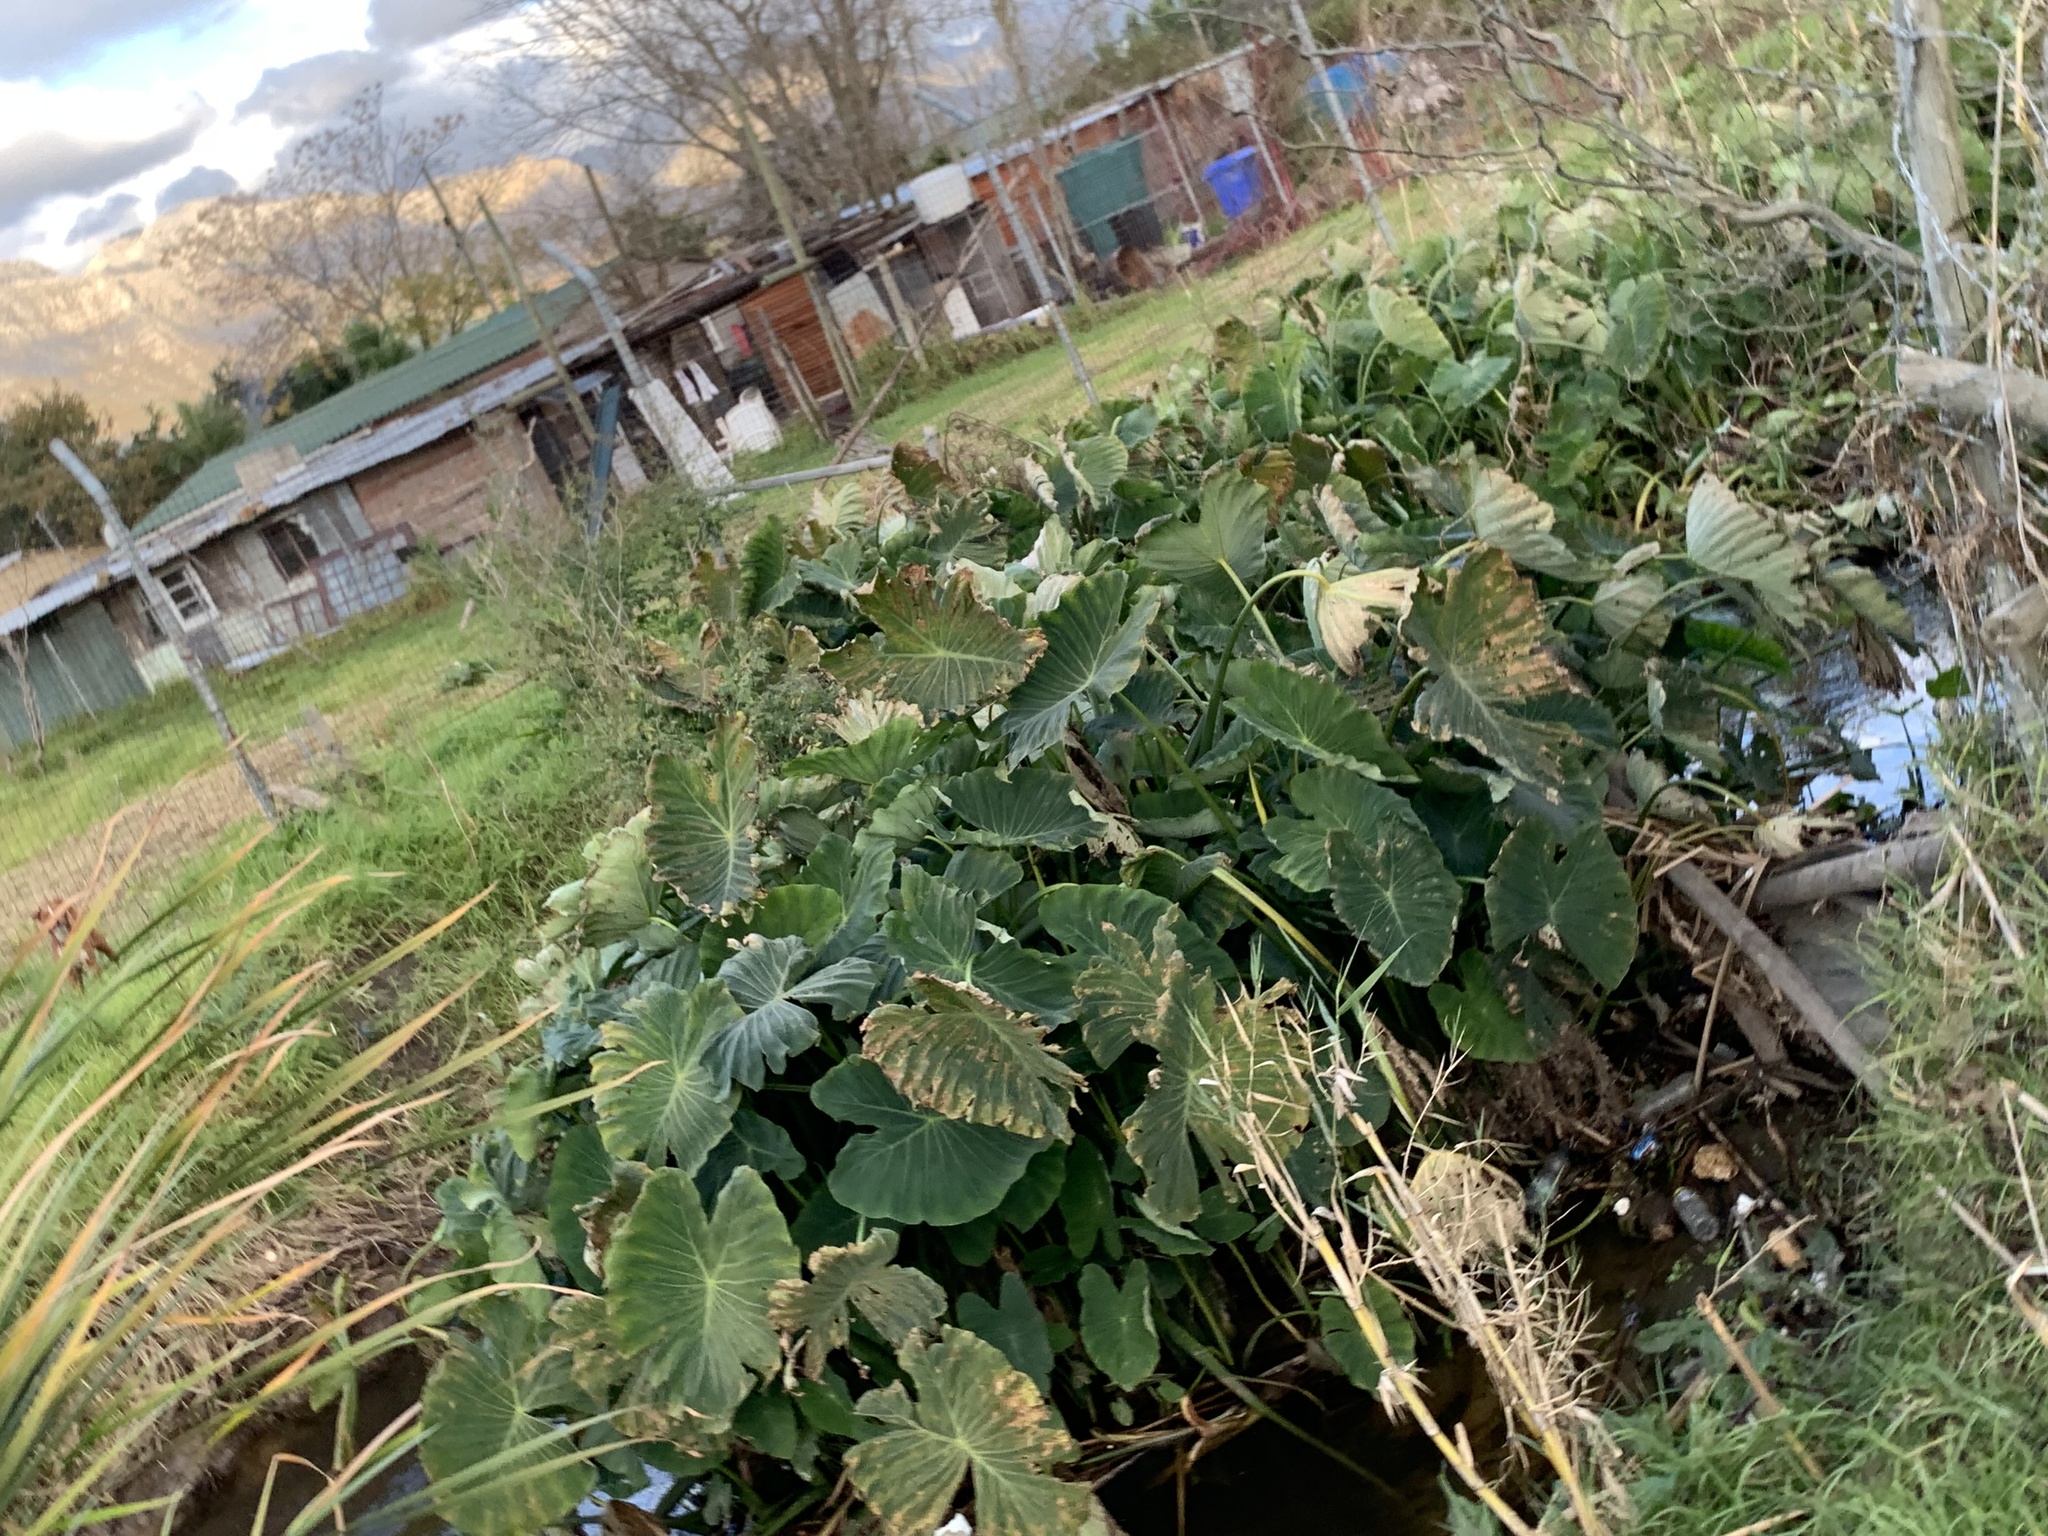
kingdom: Plantae
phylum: Tracheophyta
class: Liliopsida
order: Alismatales
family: Araceae
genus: Colocasia
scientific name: Colocasia esculenta
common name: Taro
